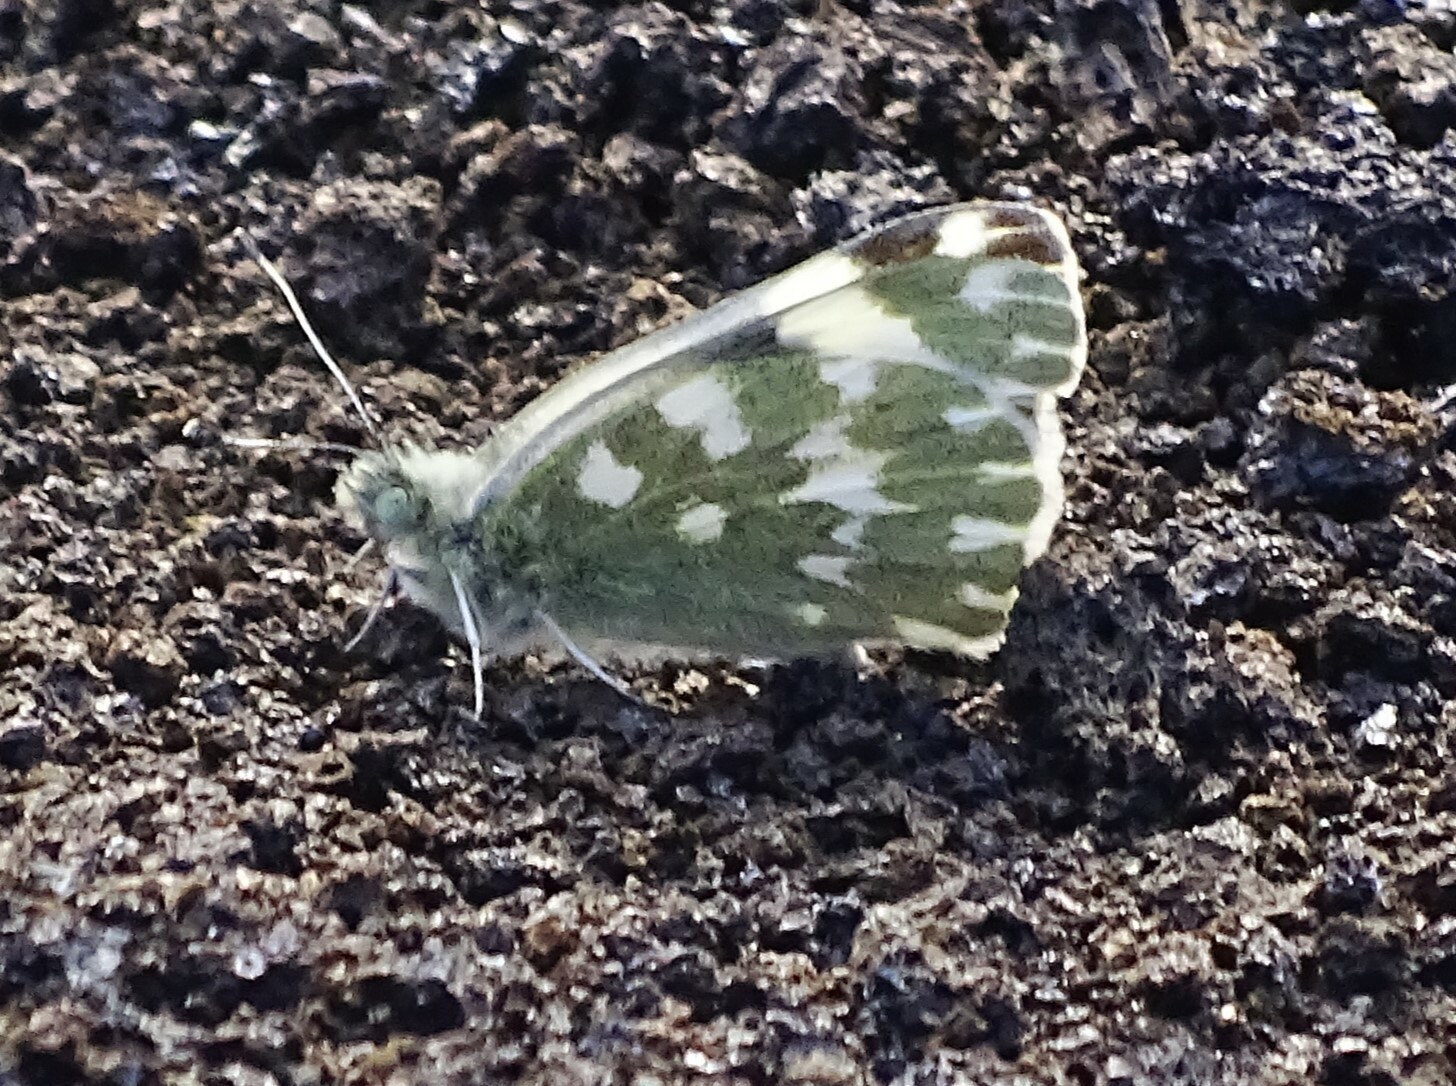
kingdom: Animalia
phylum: Arthropoda
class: Insecta
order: Lepidoptera
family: Pieridae
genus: Pontia
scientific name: Pontia daplidice
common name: Bath white
